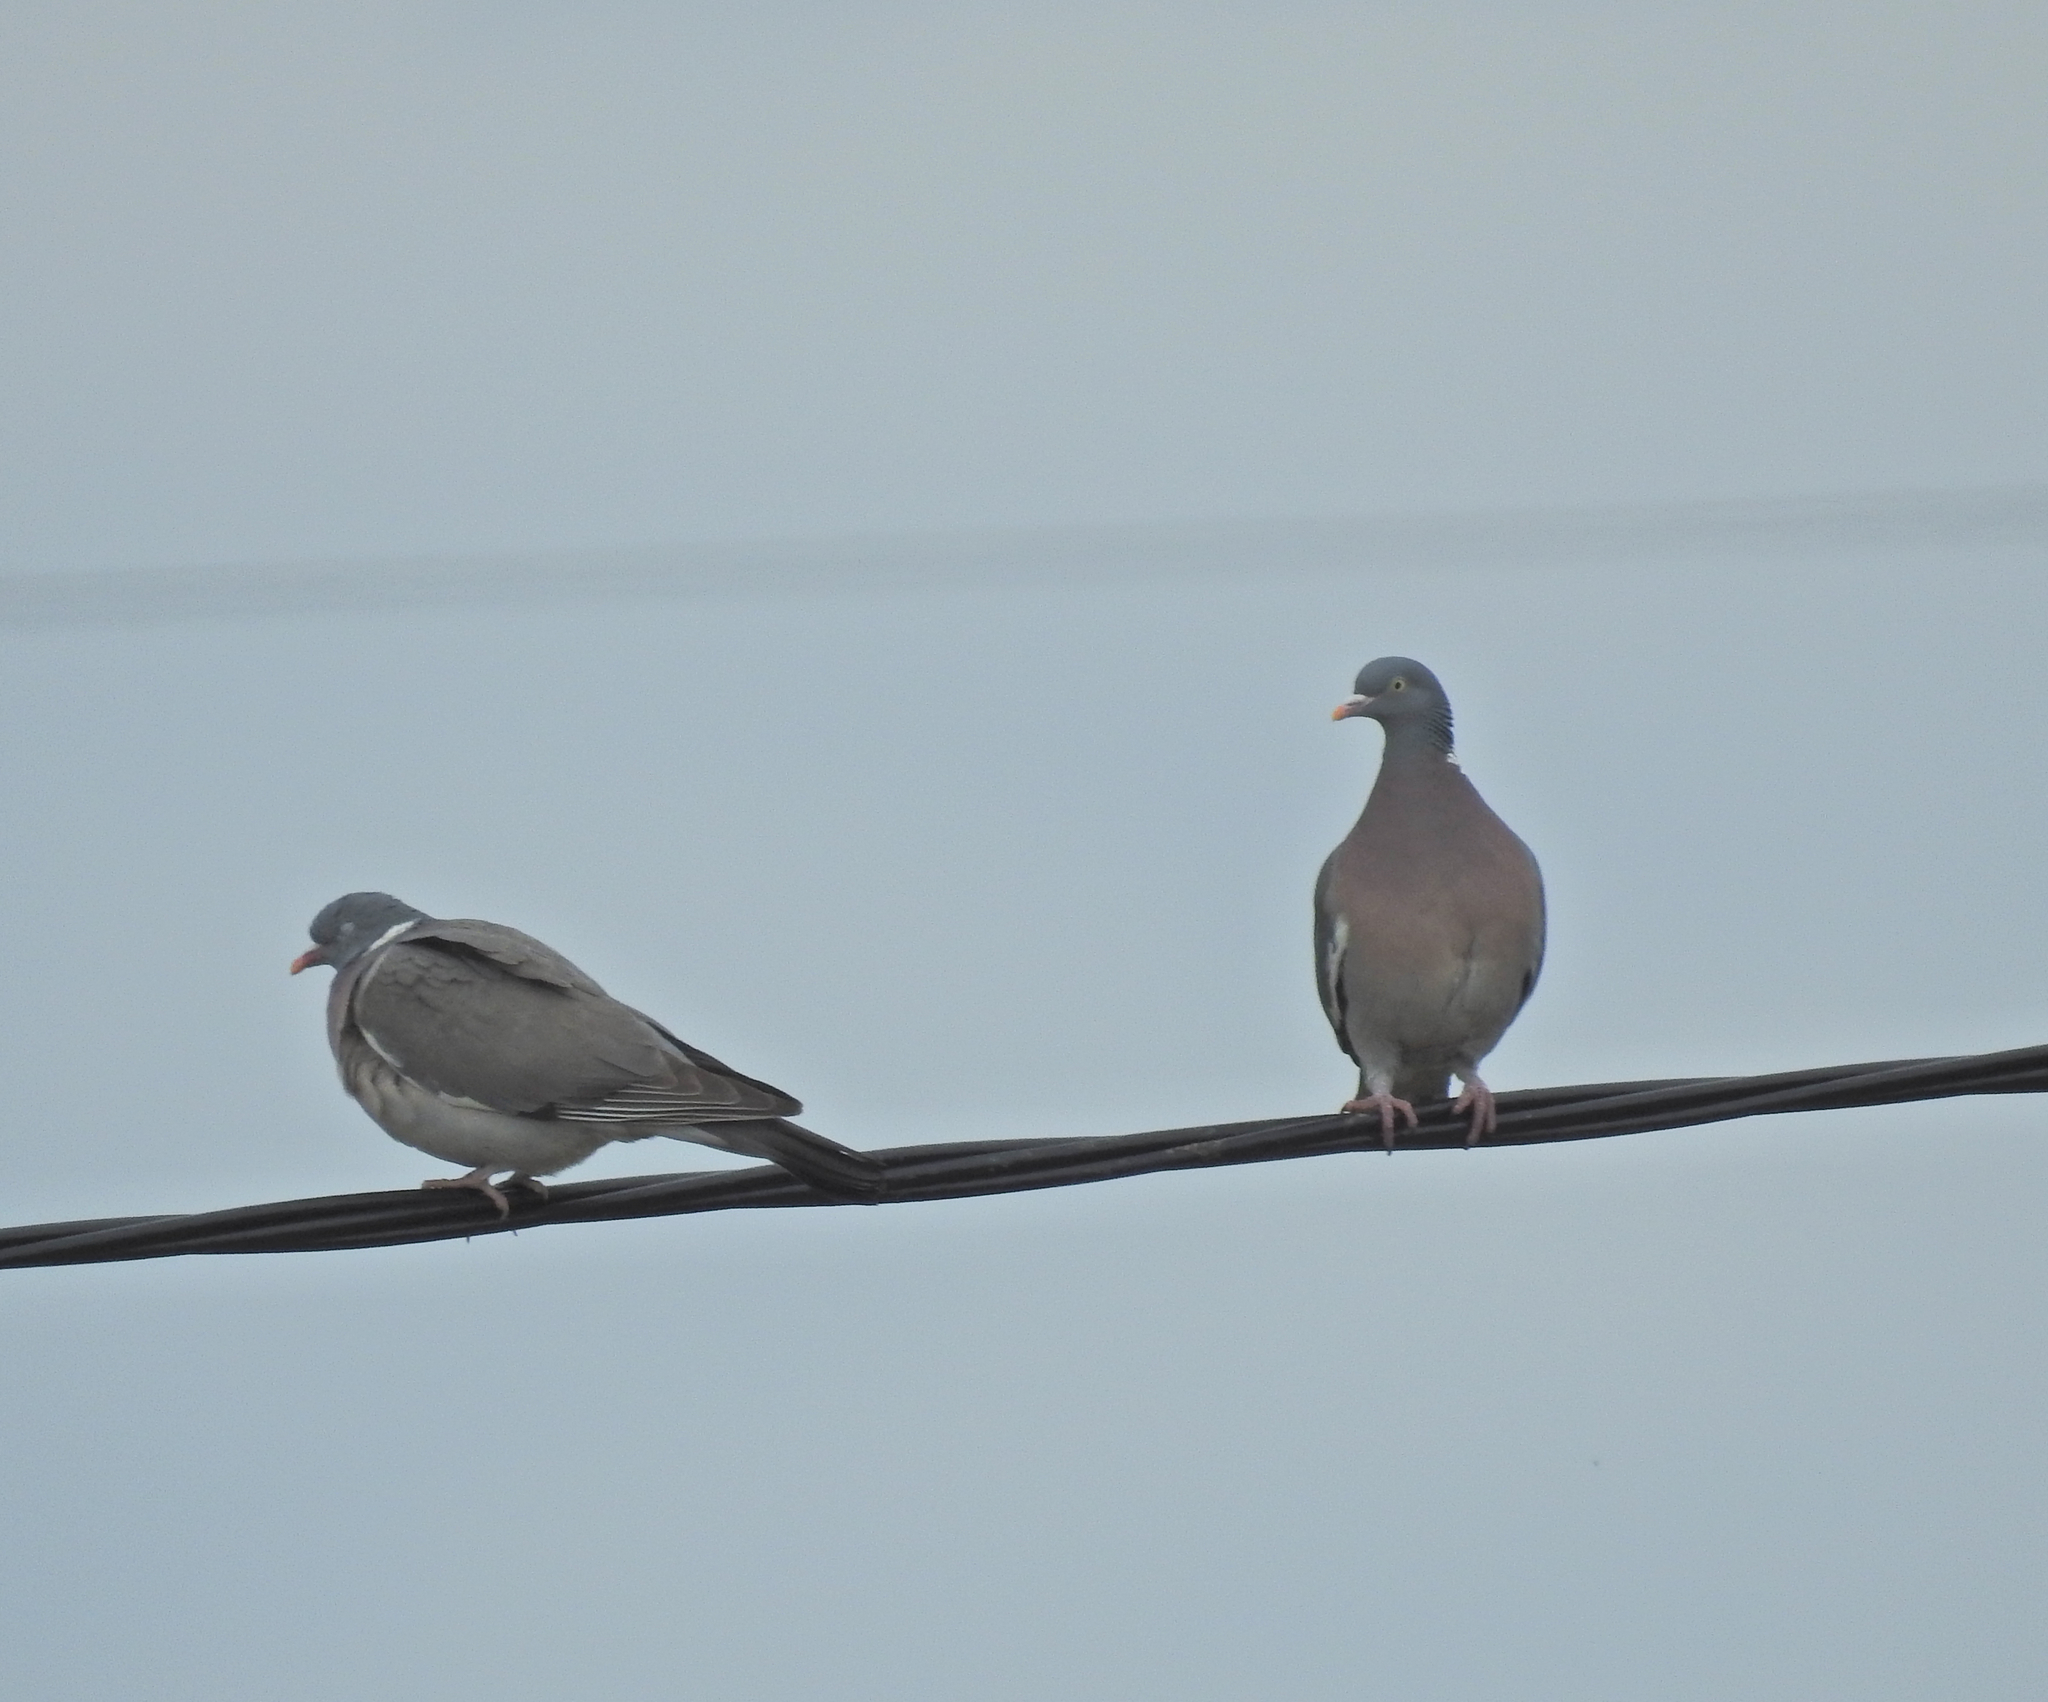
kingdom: Animalia
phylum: Chordata
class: Aves
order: Columbiformes
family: Columbidae
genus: Columba
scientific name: Columba palumbus
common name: Common wood pigeon
